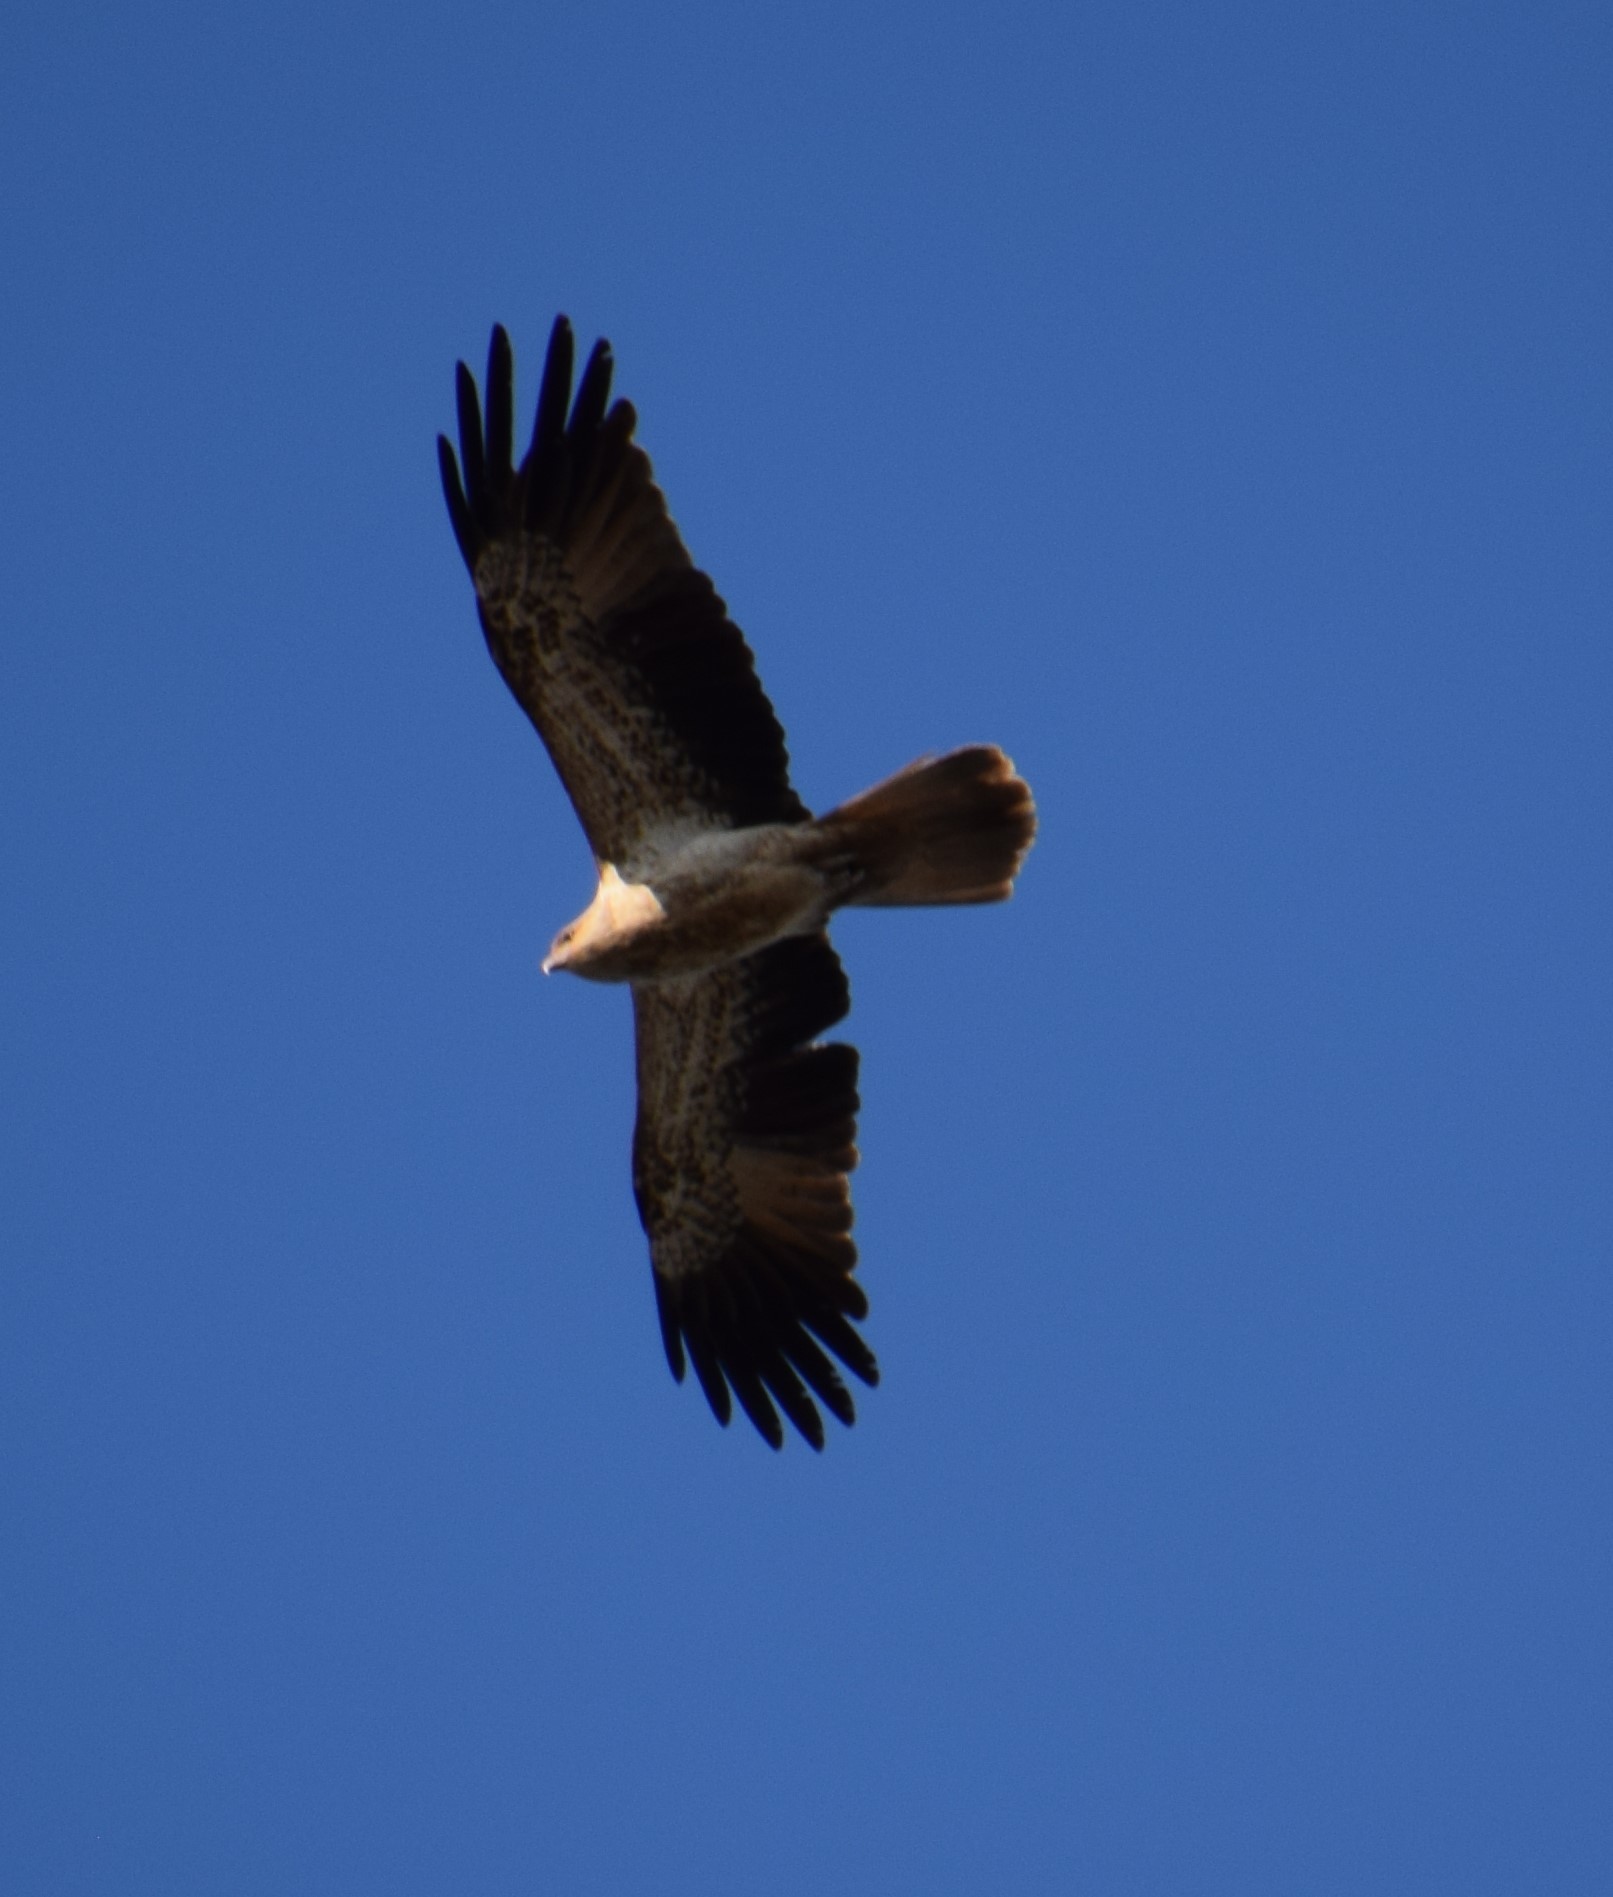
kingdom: Animalia
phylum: Chordata
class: Aves
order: Accipitriformes
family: Accipitridae
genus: Haliastur
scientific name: Haliastur sphenurus
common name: Whistling kite
